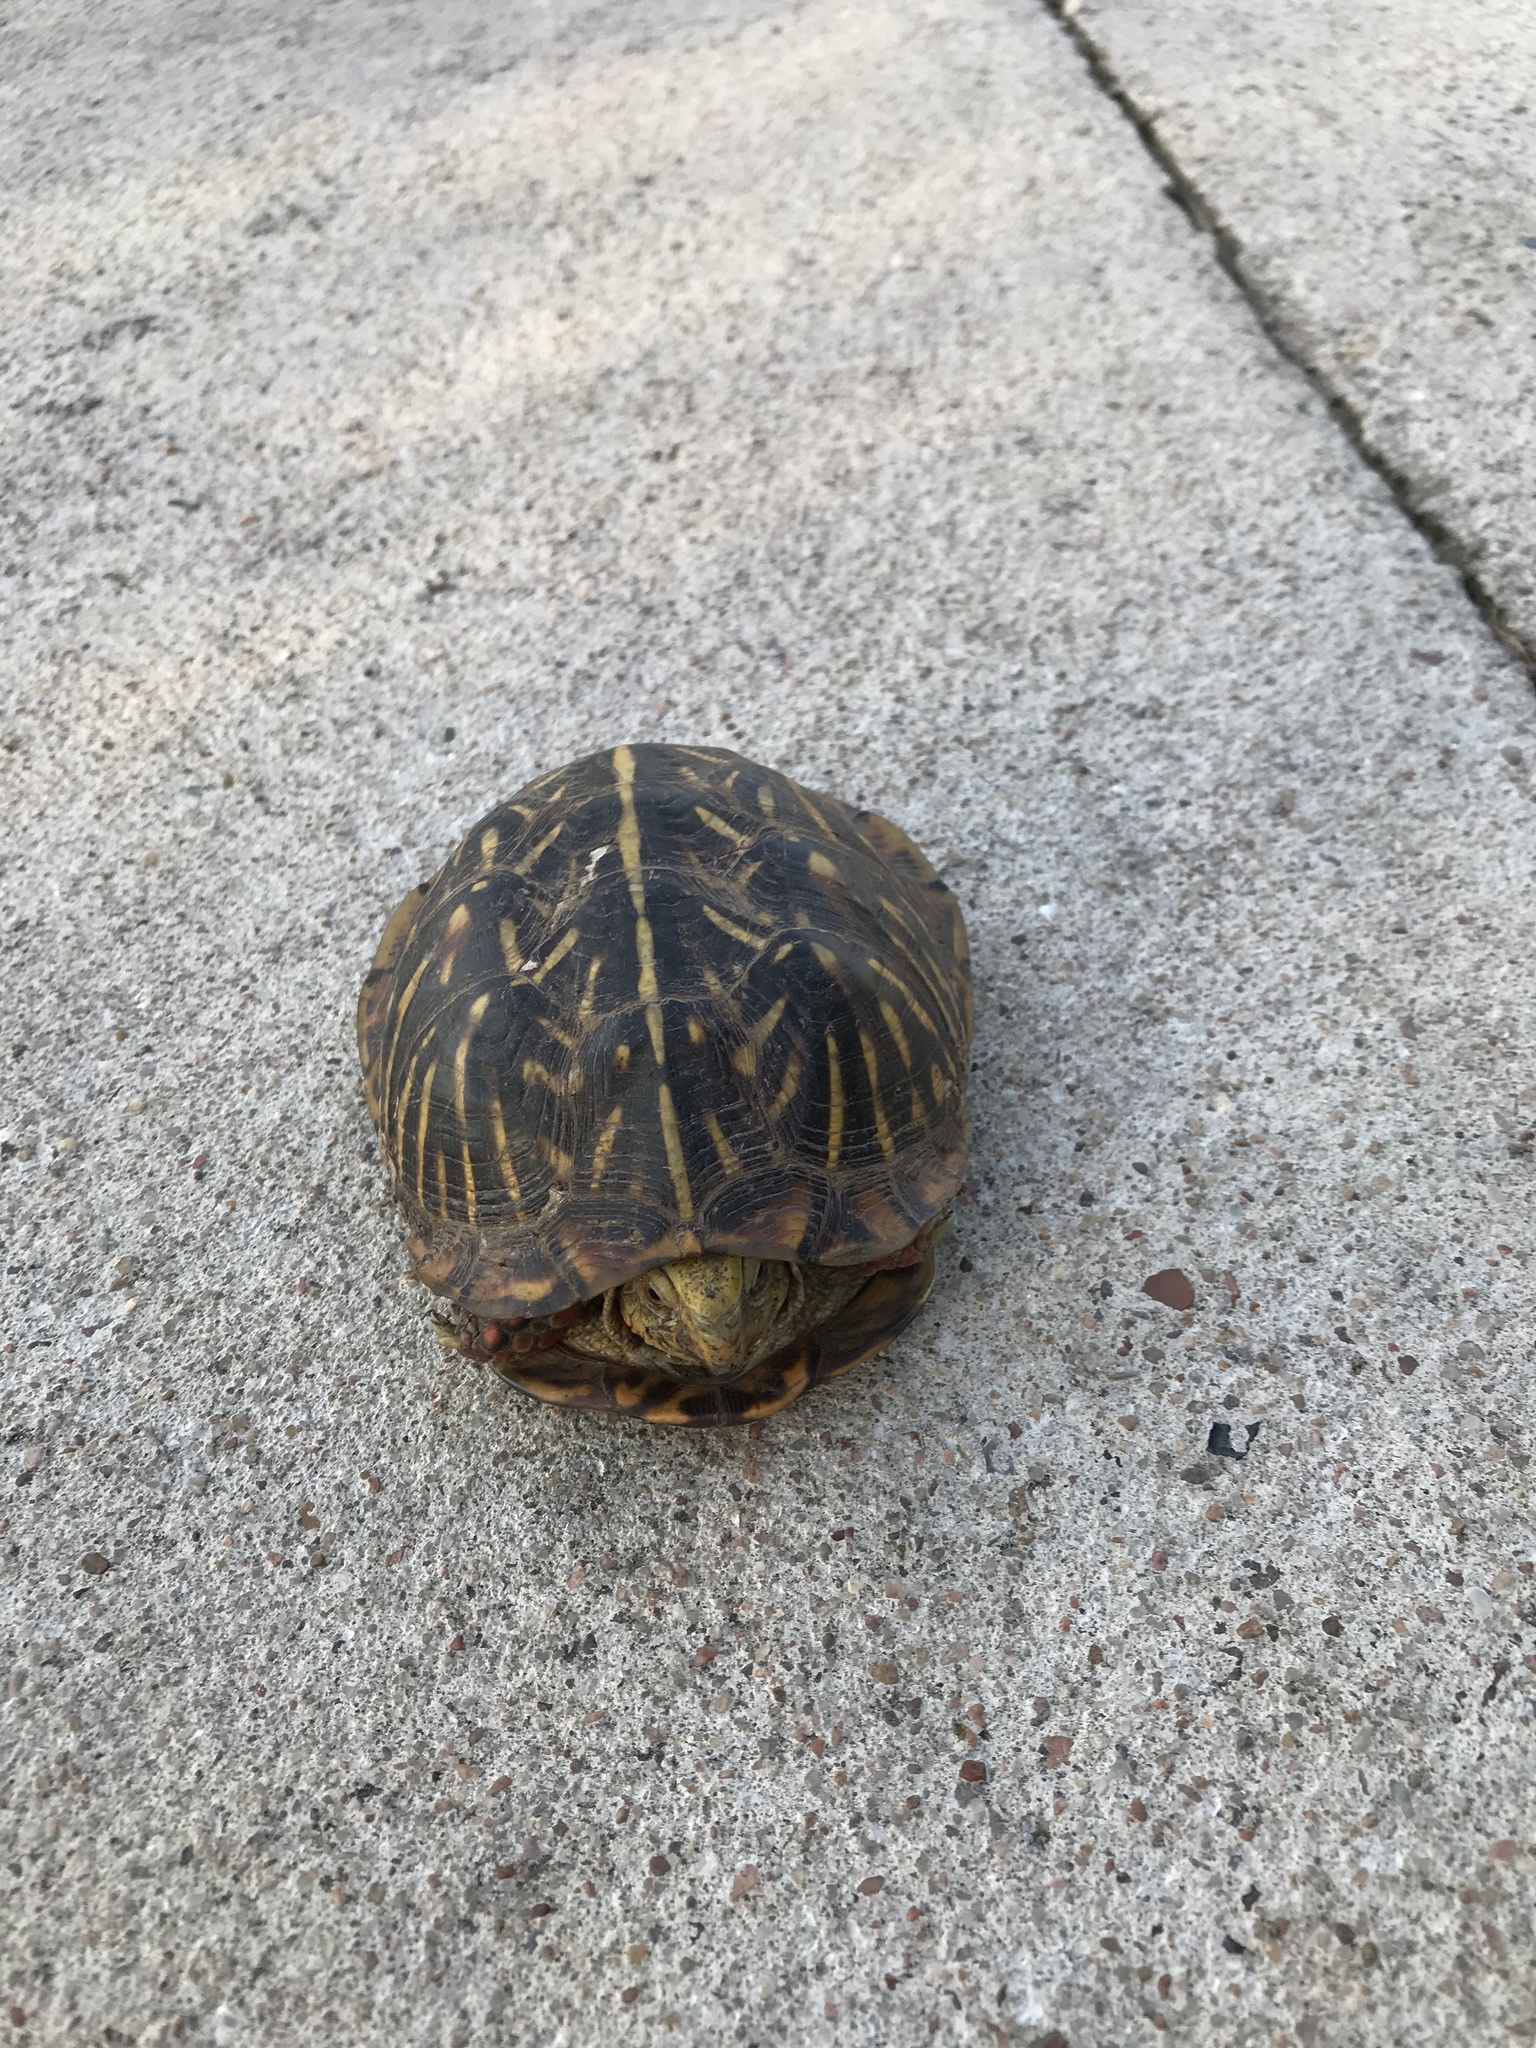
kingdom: Animalia
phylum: Chordata
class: Testudines
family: Emydidae
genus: Terrapene
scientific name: Terrapene ornata
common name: Western box turtle
